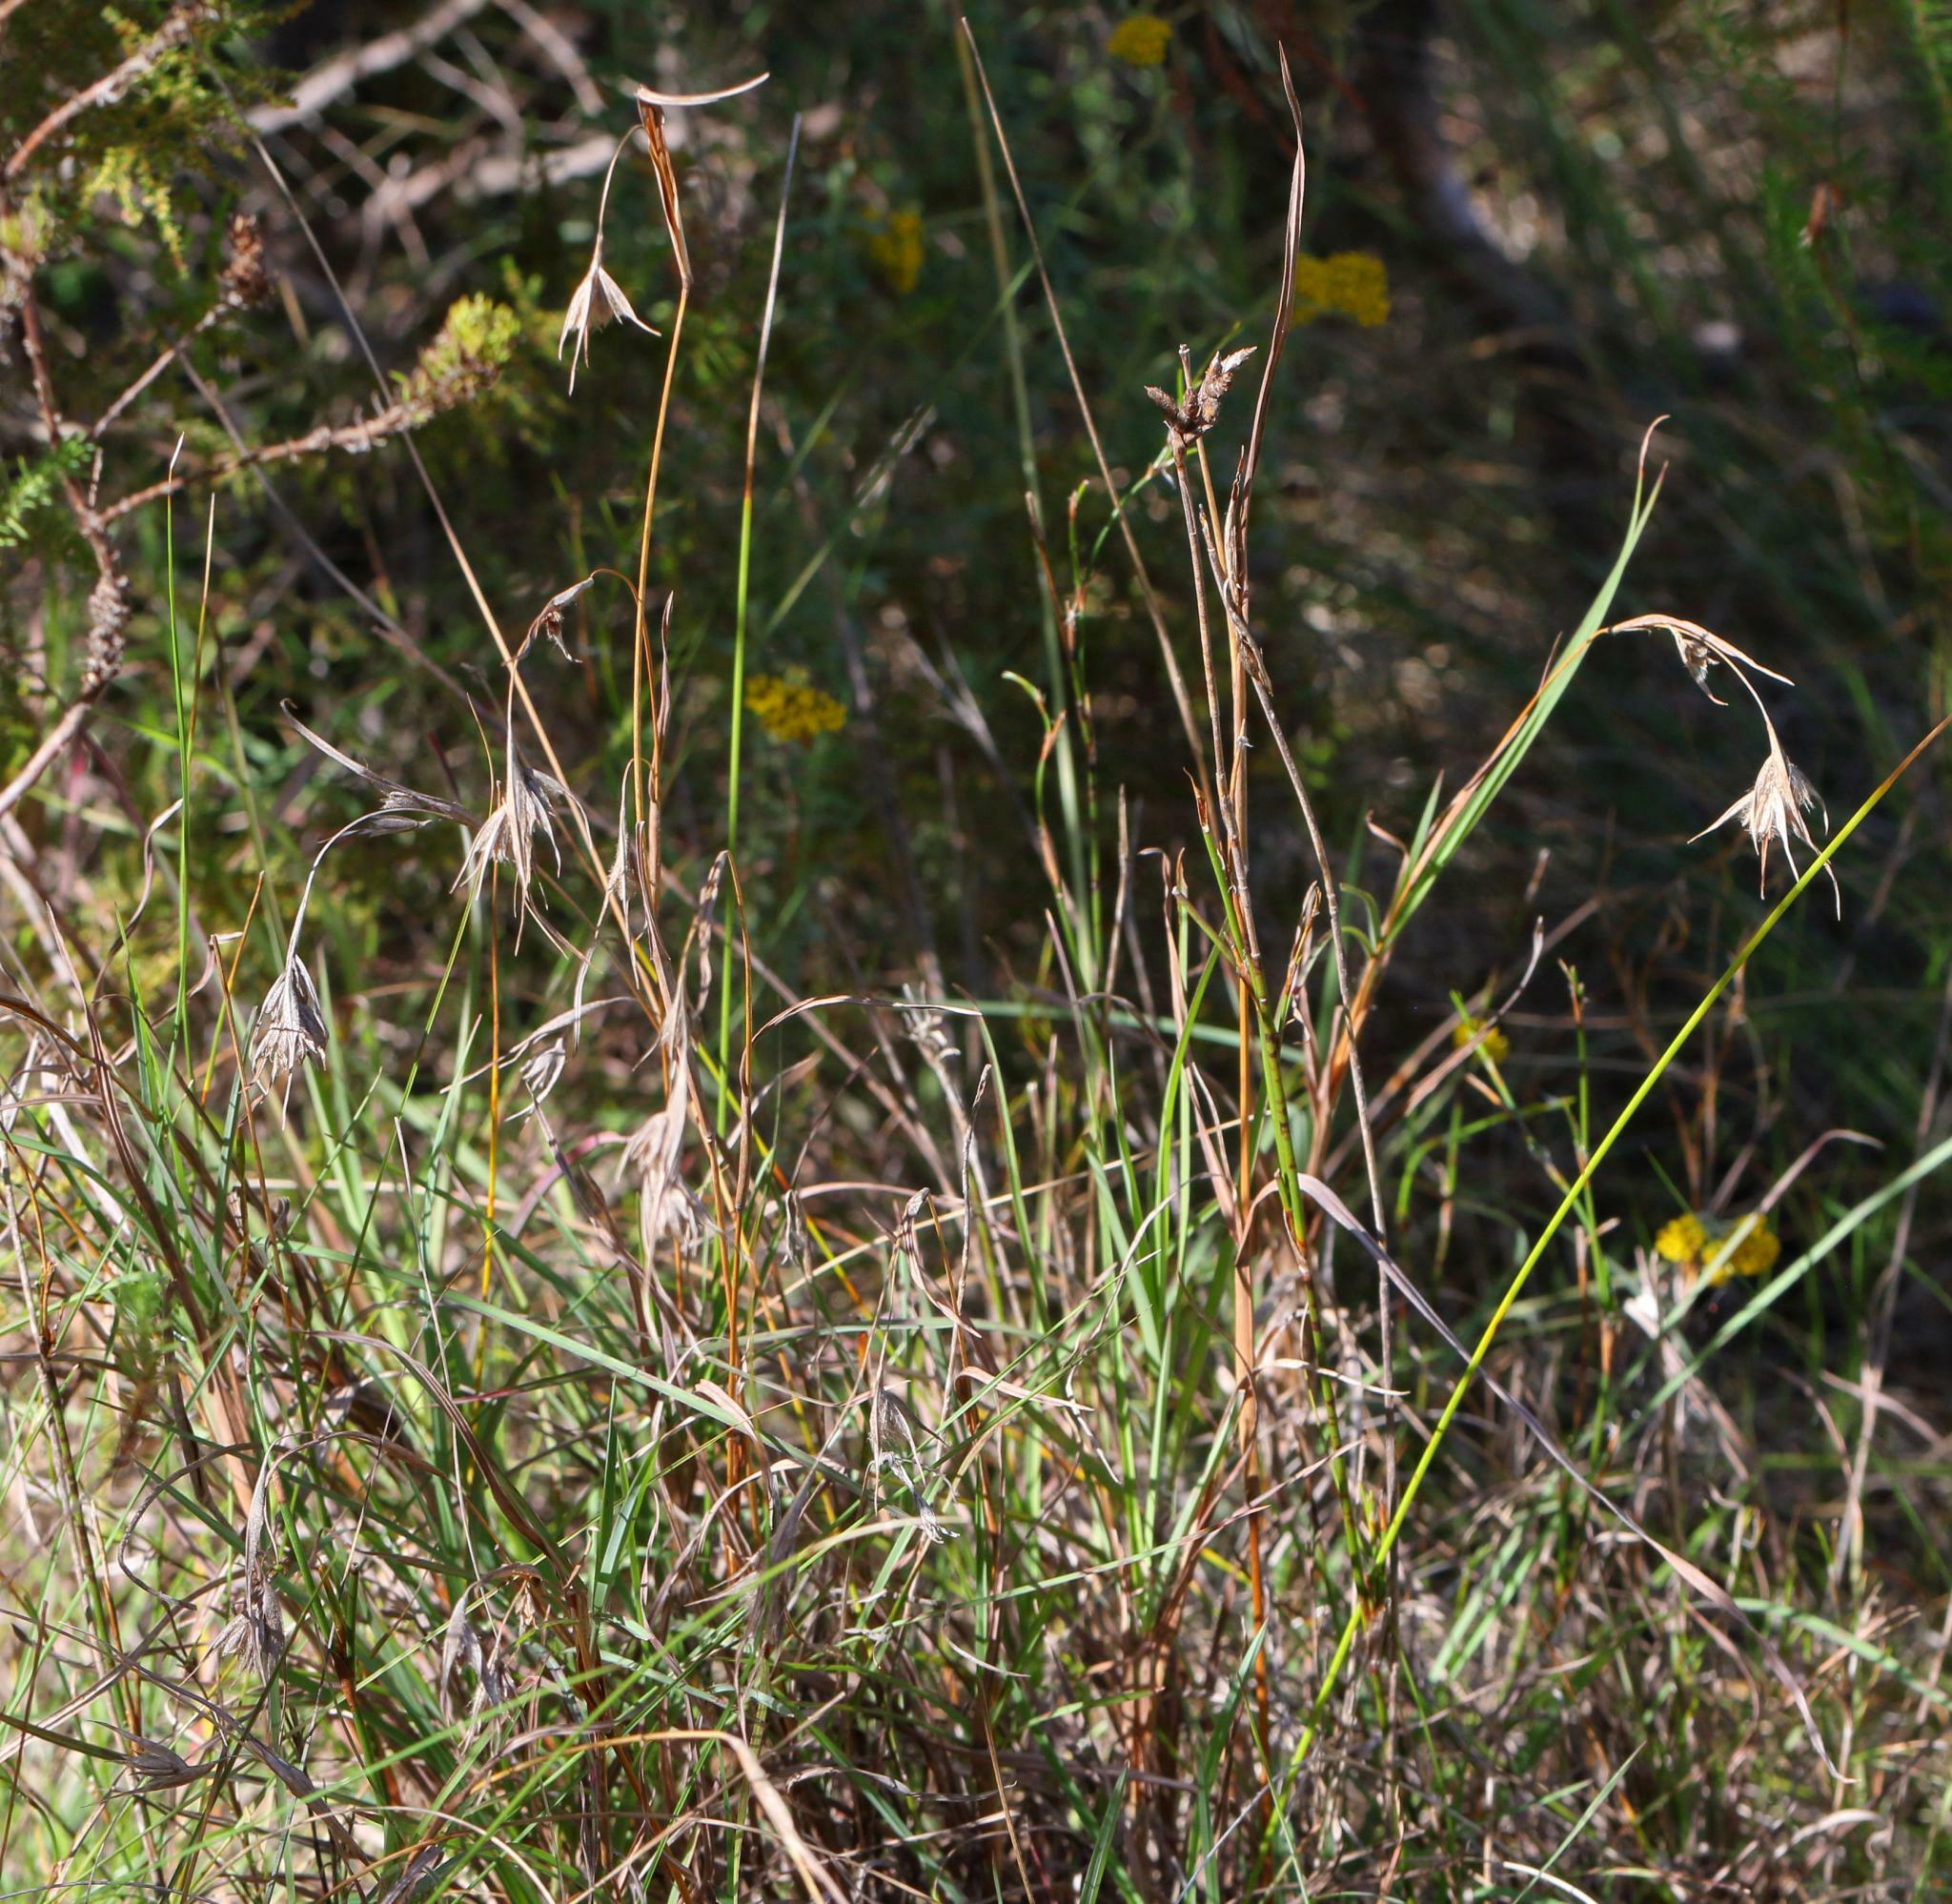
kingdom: Plantae
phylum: Tracheophyta
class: Liliopsida
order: Poales
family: Poaceae
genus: Themeda
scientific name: Themeda triandra
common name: Kangaroo grass
